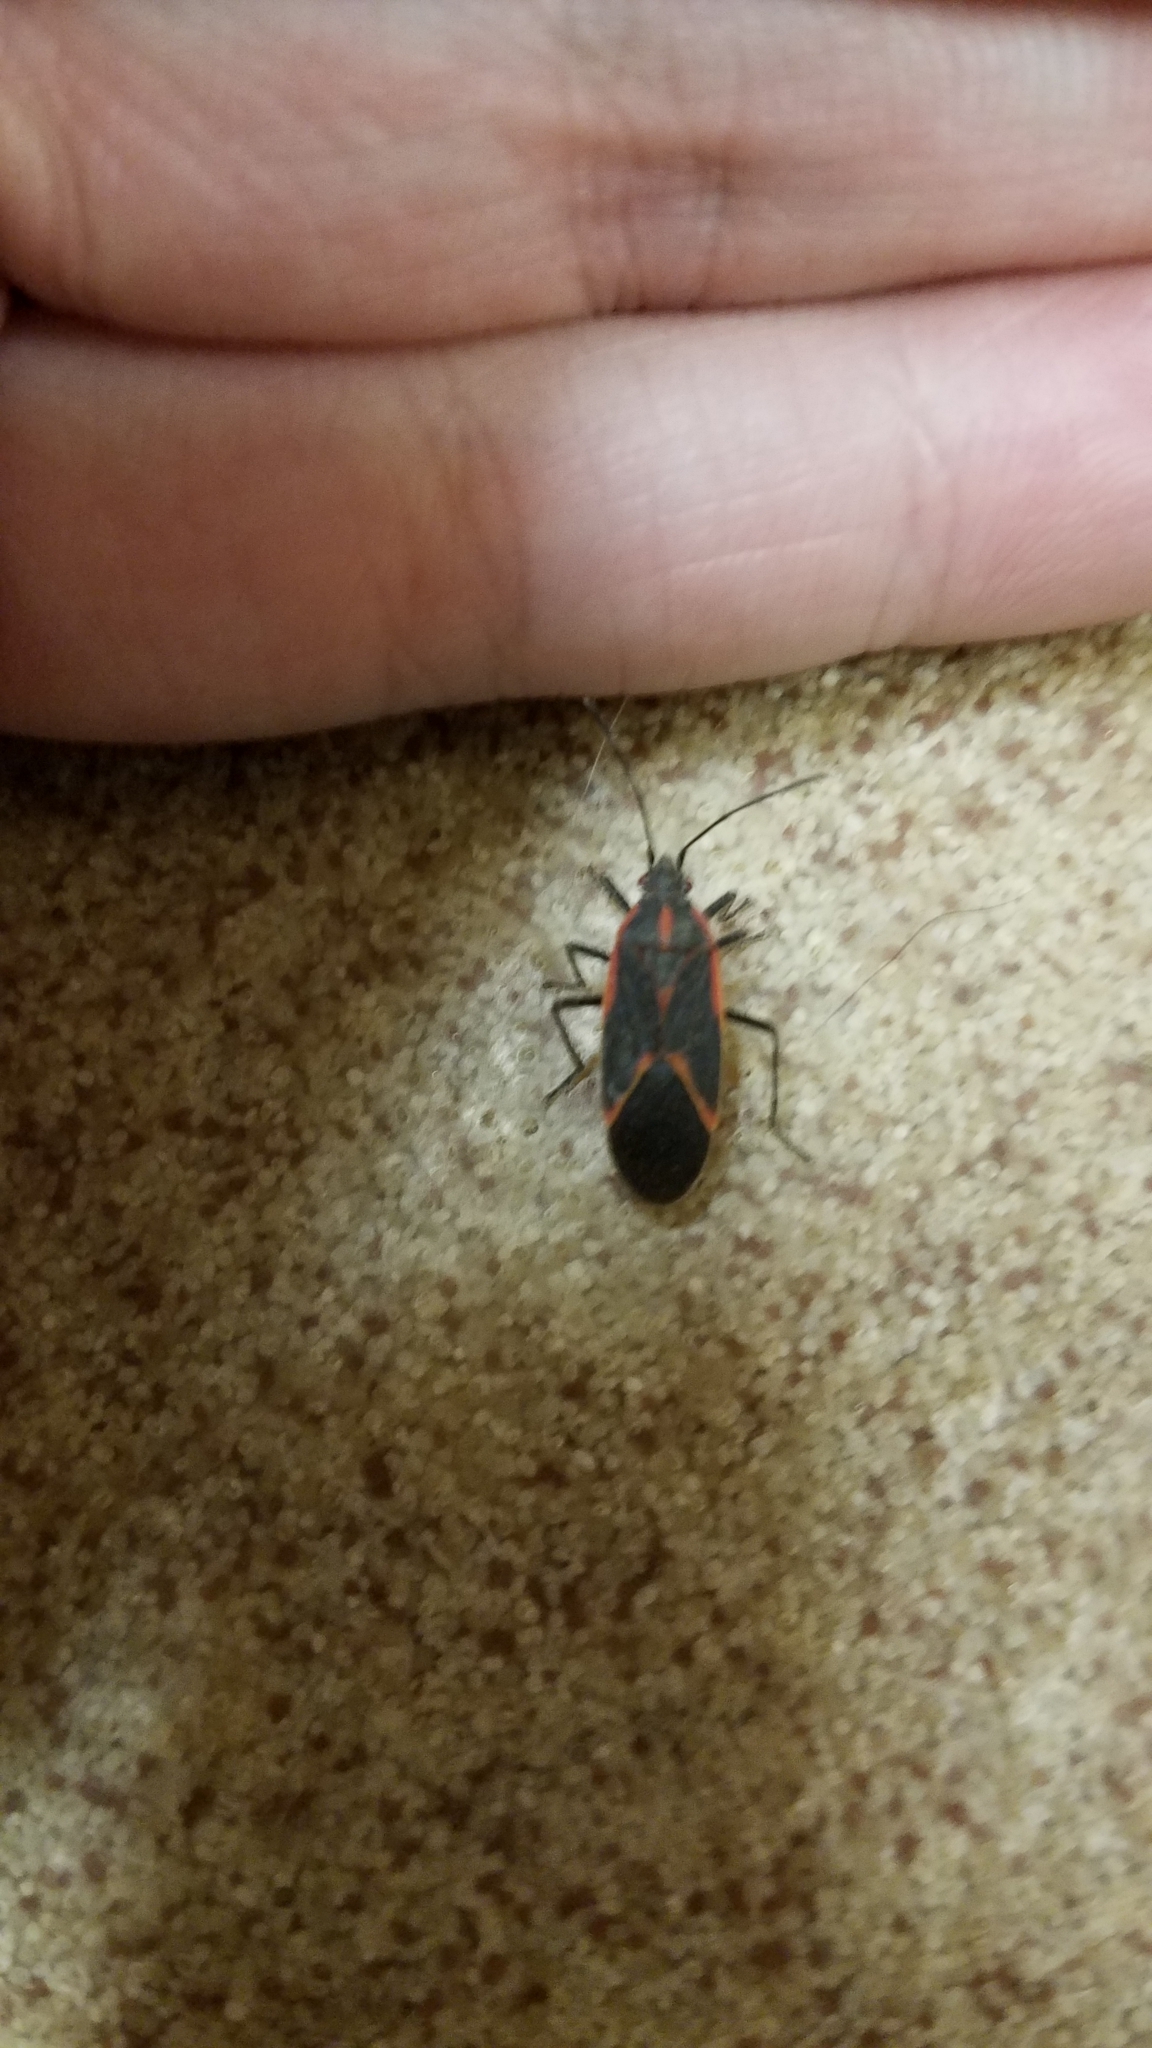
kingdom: Animalia
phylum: Arthropoda
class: Insecta
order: Hemiptera
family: Rhopalidae
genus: Boisea
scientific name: Boisea trivittata
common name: Boxelder bug
